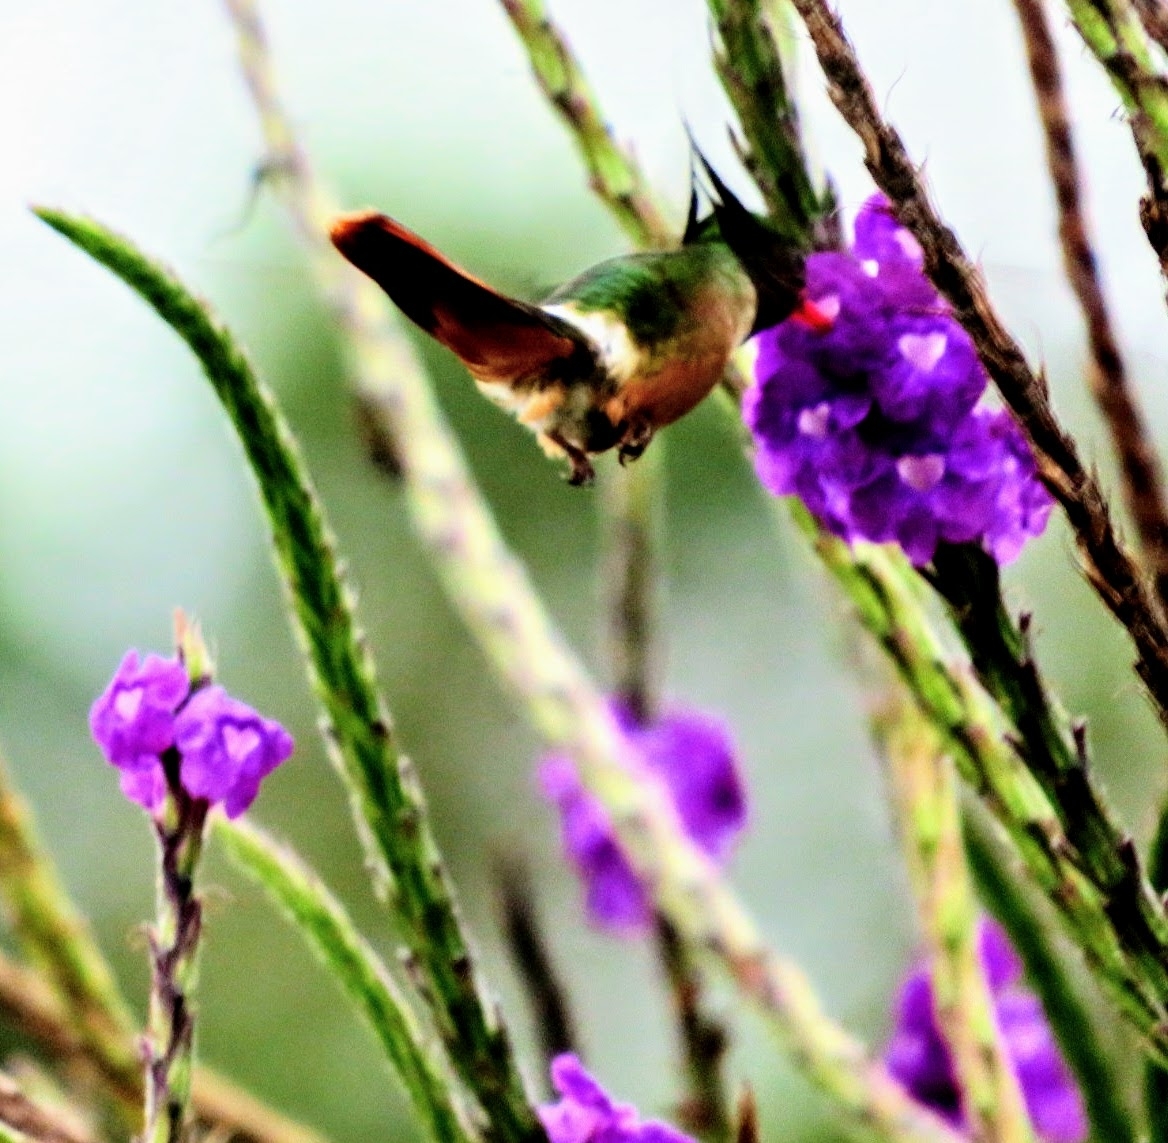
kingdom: Animalia
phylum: Chordata
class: Aves
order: Apodiformes
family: Trochilidae
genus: Lophornis
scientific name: Lophornis adorabilis
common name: White-crested coquette
